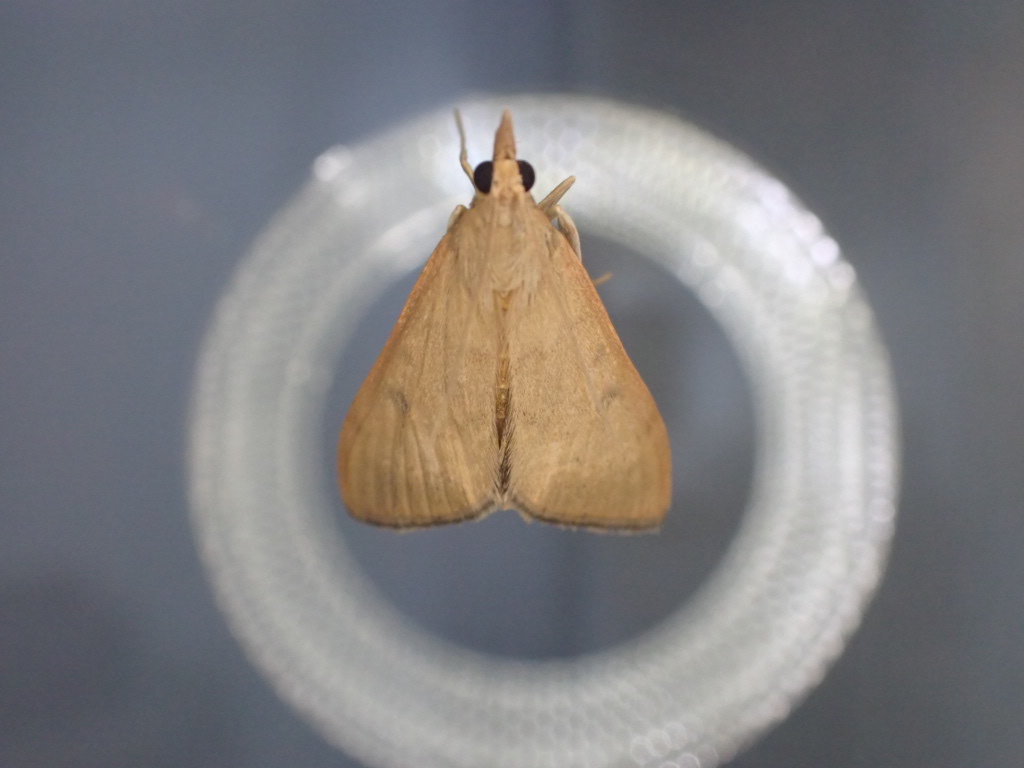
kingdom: Animalia
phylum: Arthropoda
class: Insecta
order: Lepidoptera
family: Crambidae
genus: Uresiphita
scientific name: Uresiphita
